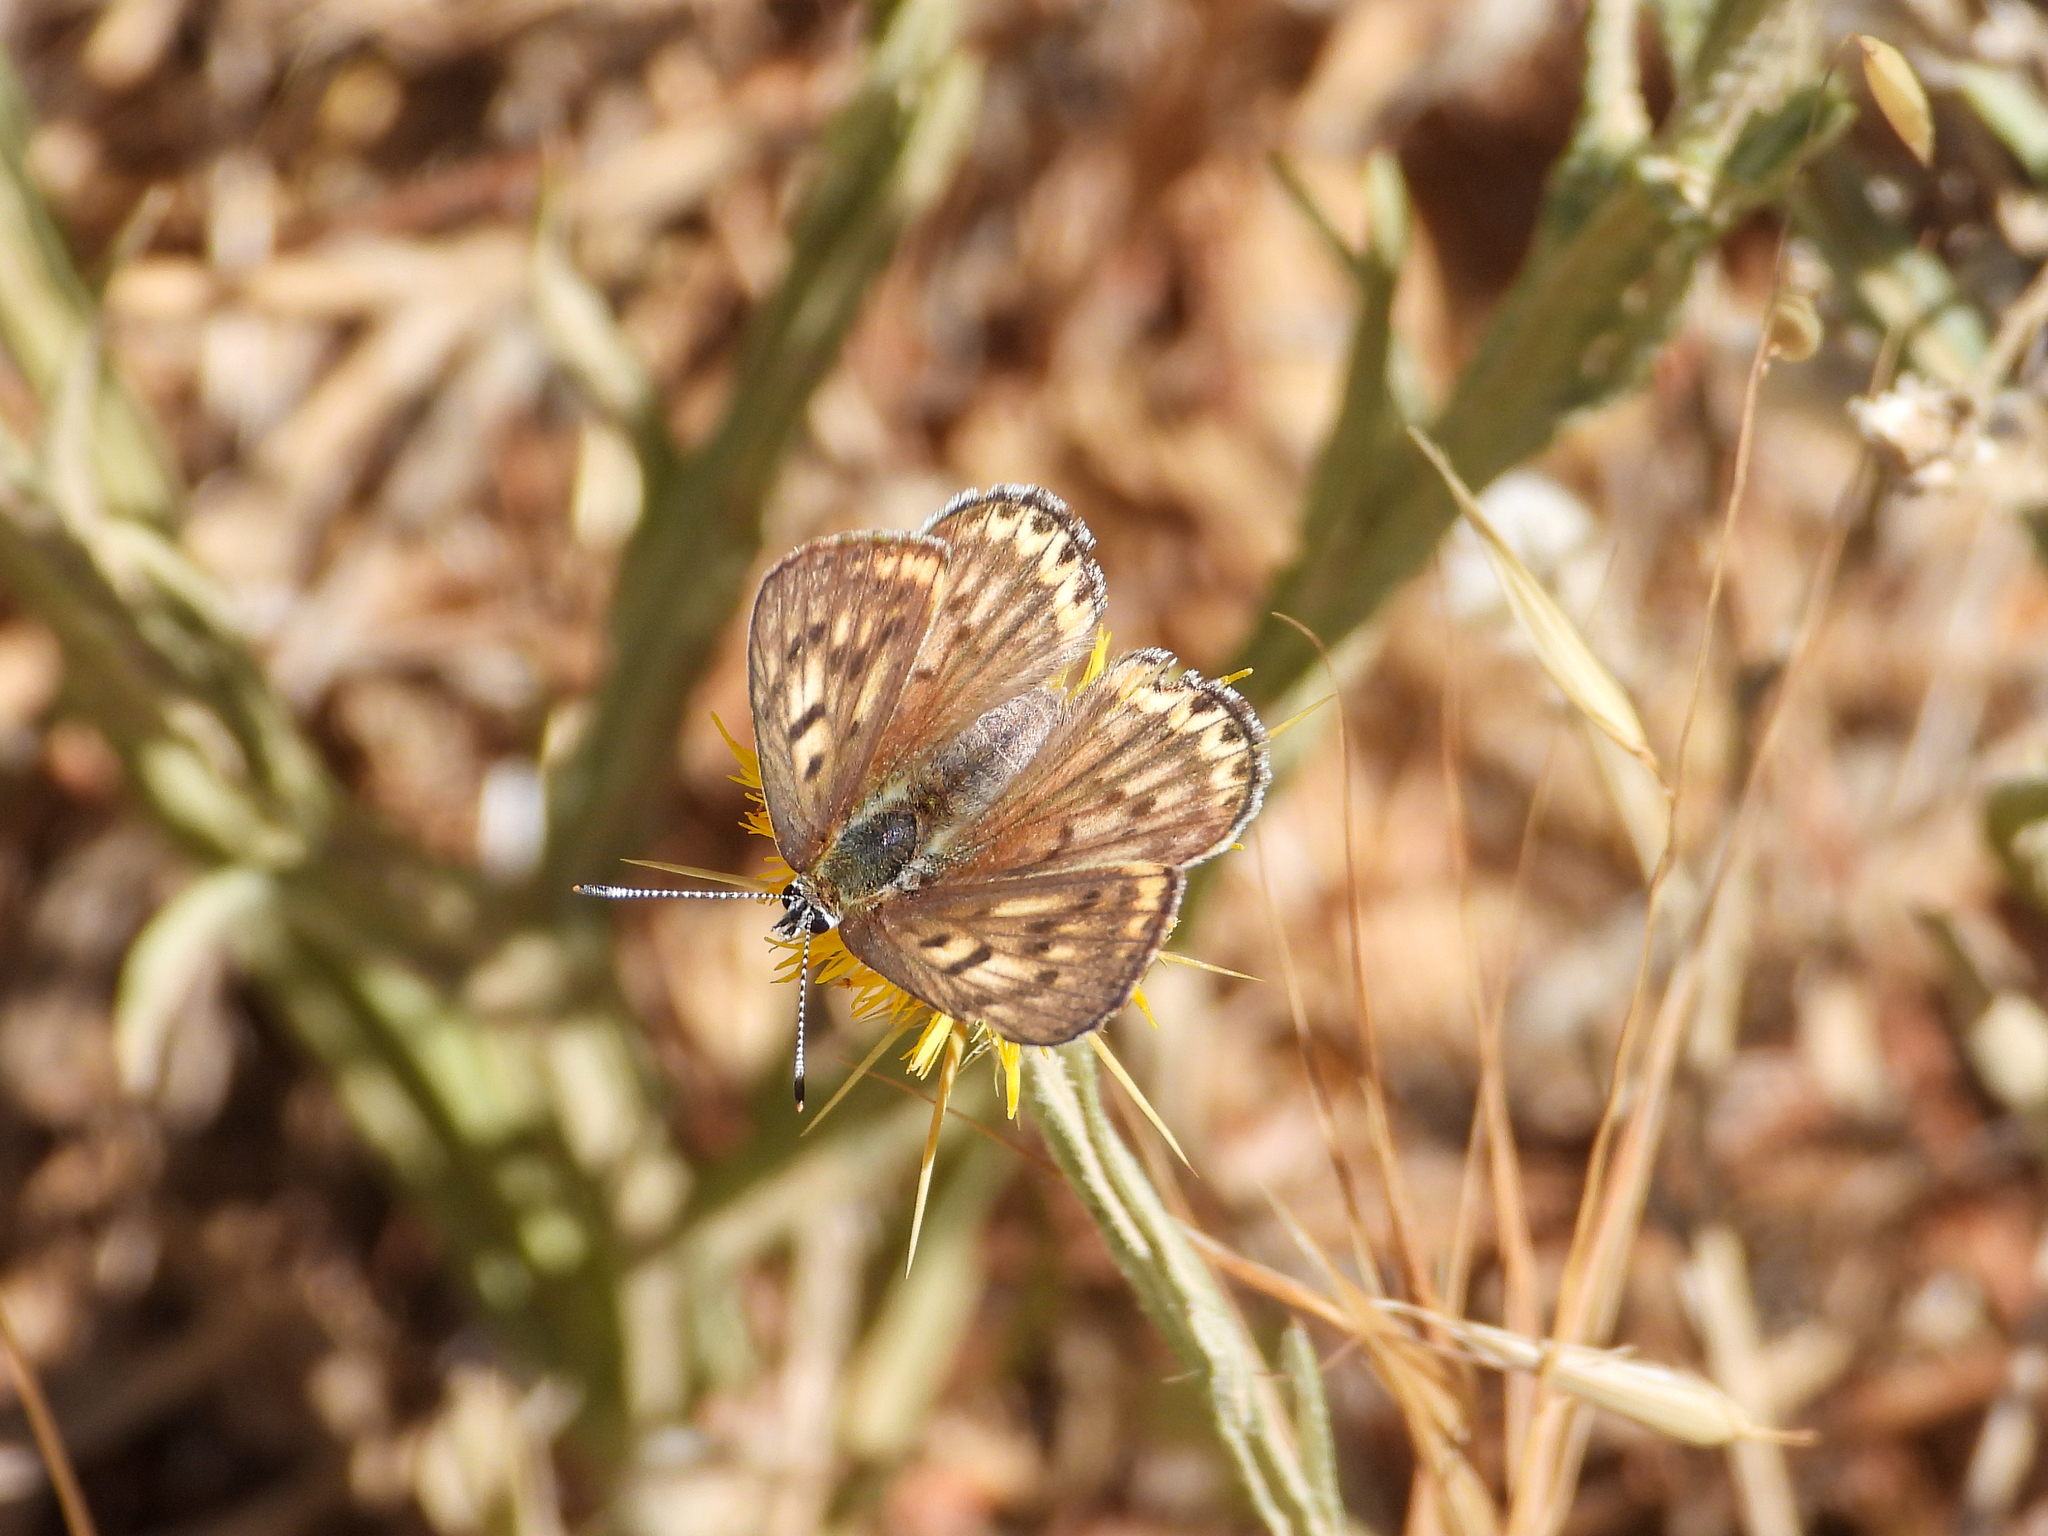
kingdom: Animalia
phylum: Arthropoda
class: Insecta
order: Lepidoptera
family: Lycaenidae
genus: Tharsalea
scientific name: Tharsalea gorgon
